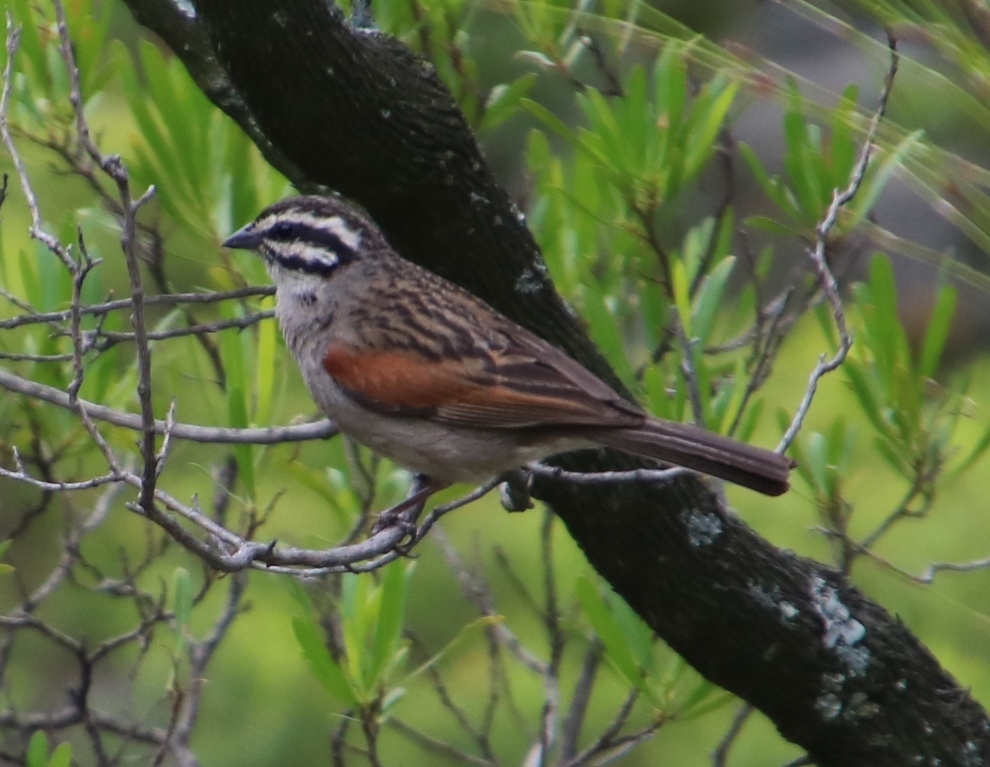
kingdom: Animalia
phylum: Chordata
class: Aves
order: Passeriformes
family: Emberizidae
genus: Emberiza
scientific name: Emberiza capensis
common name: Cape bunting
